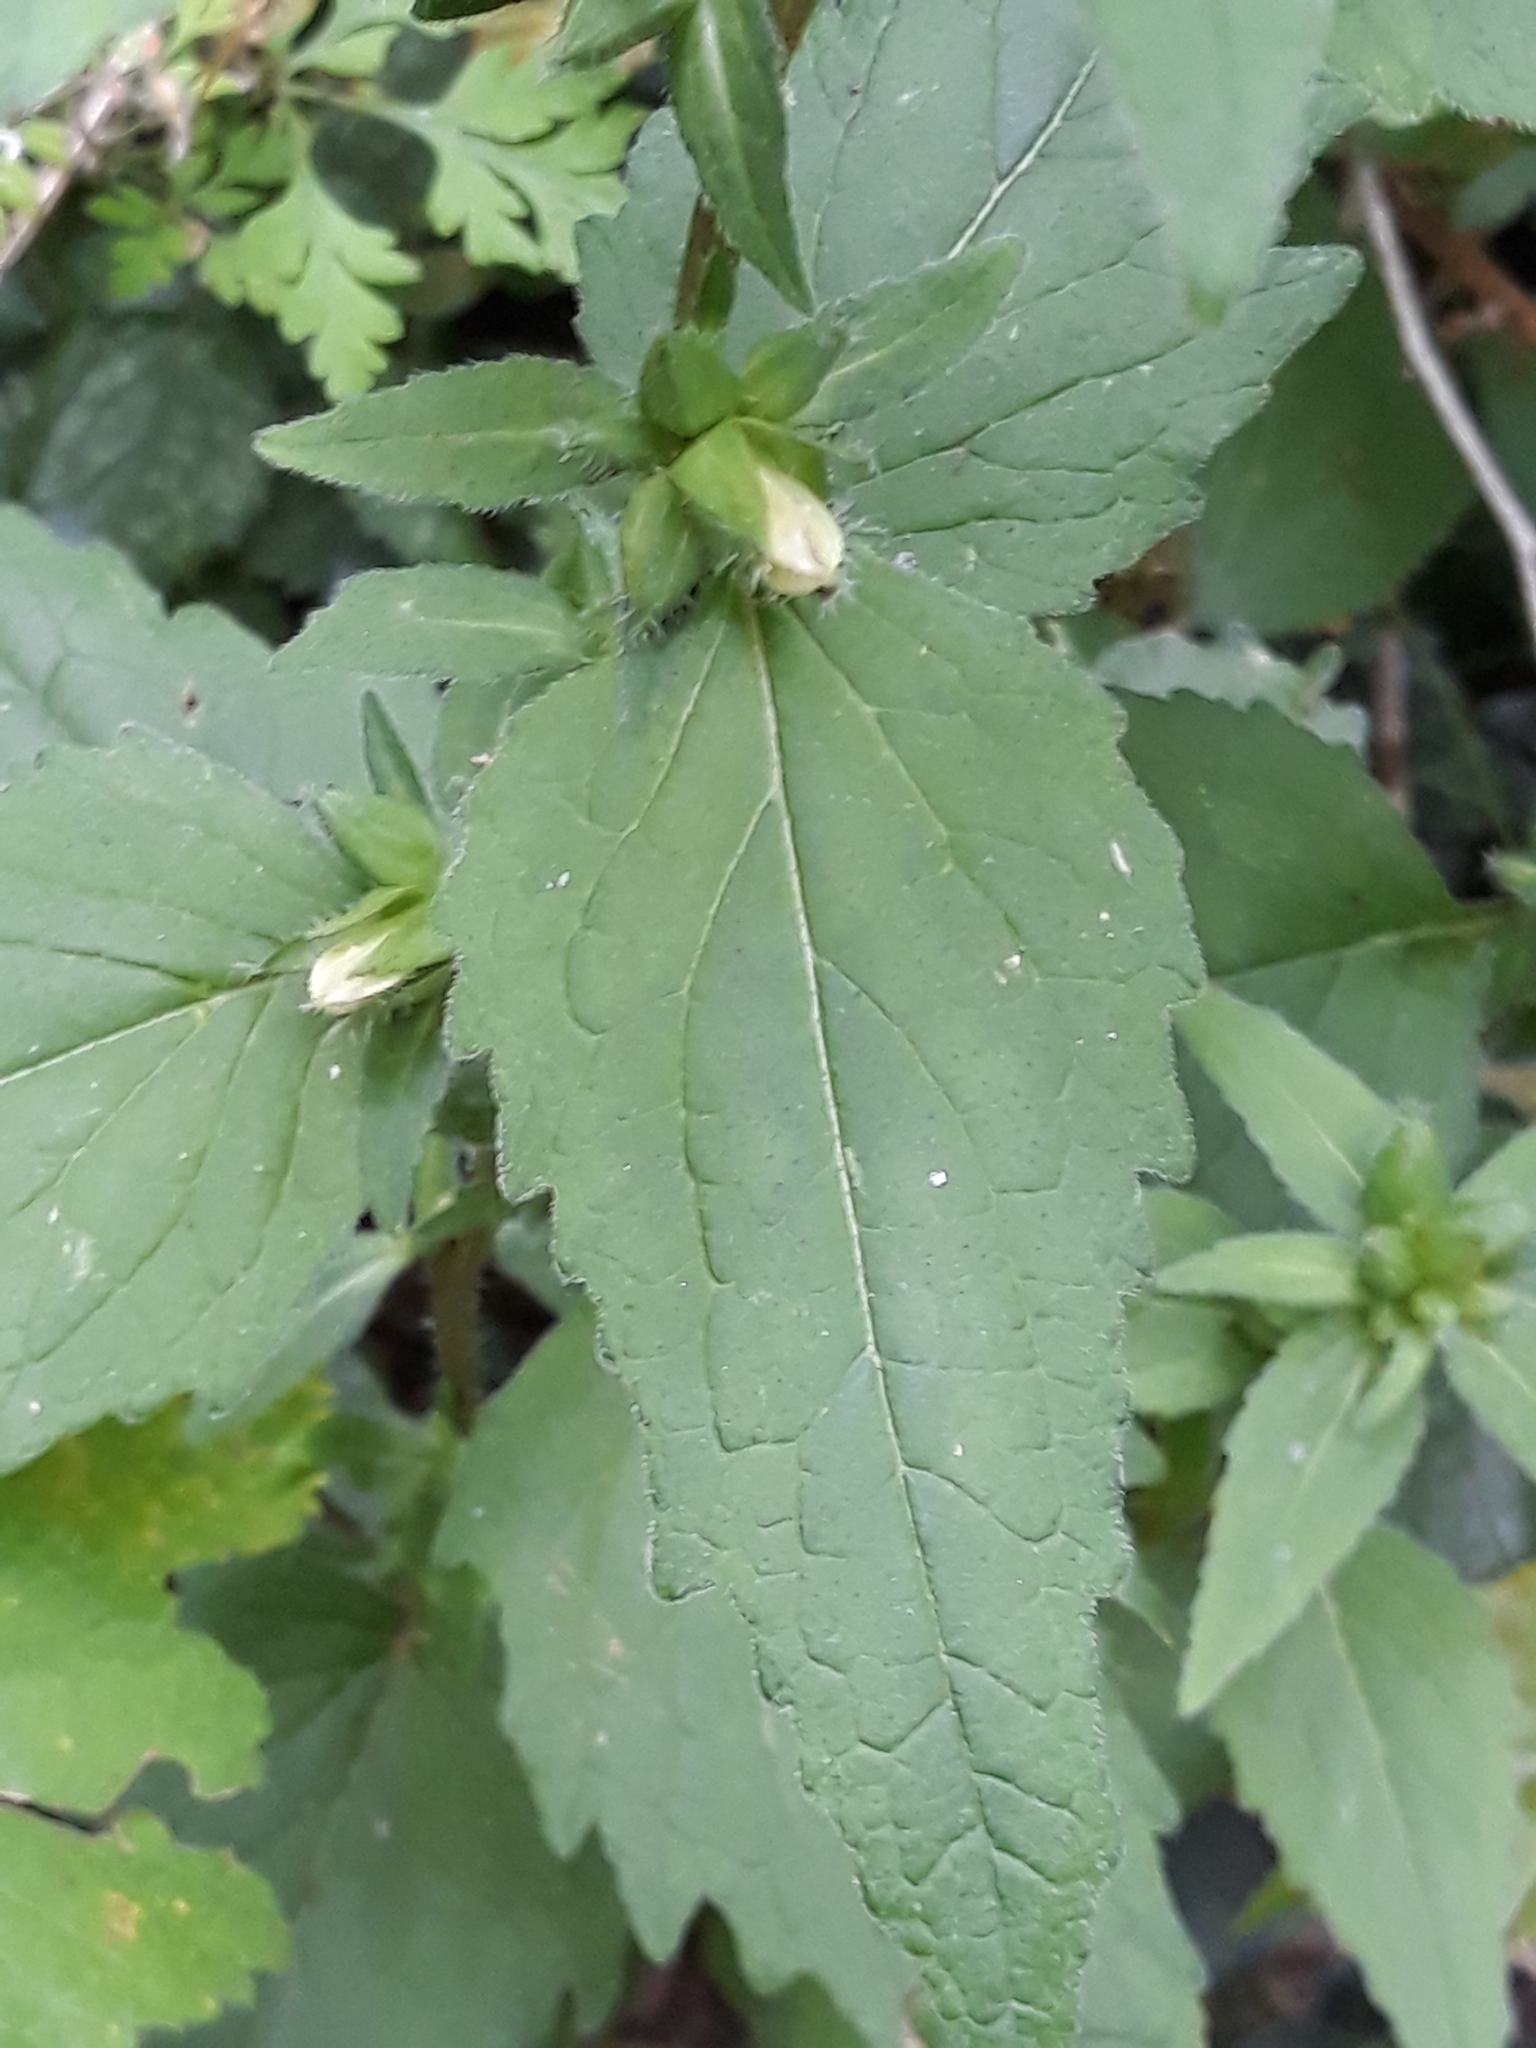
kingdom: Plantae
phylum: Tracheophyta
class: Magnoliopsida
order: Asterales
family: Campanulaceae
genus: Campanula
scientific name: Campanula trachelium
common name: Nettle-leaved bellflower
